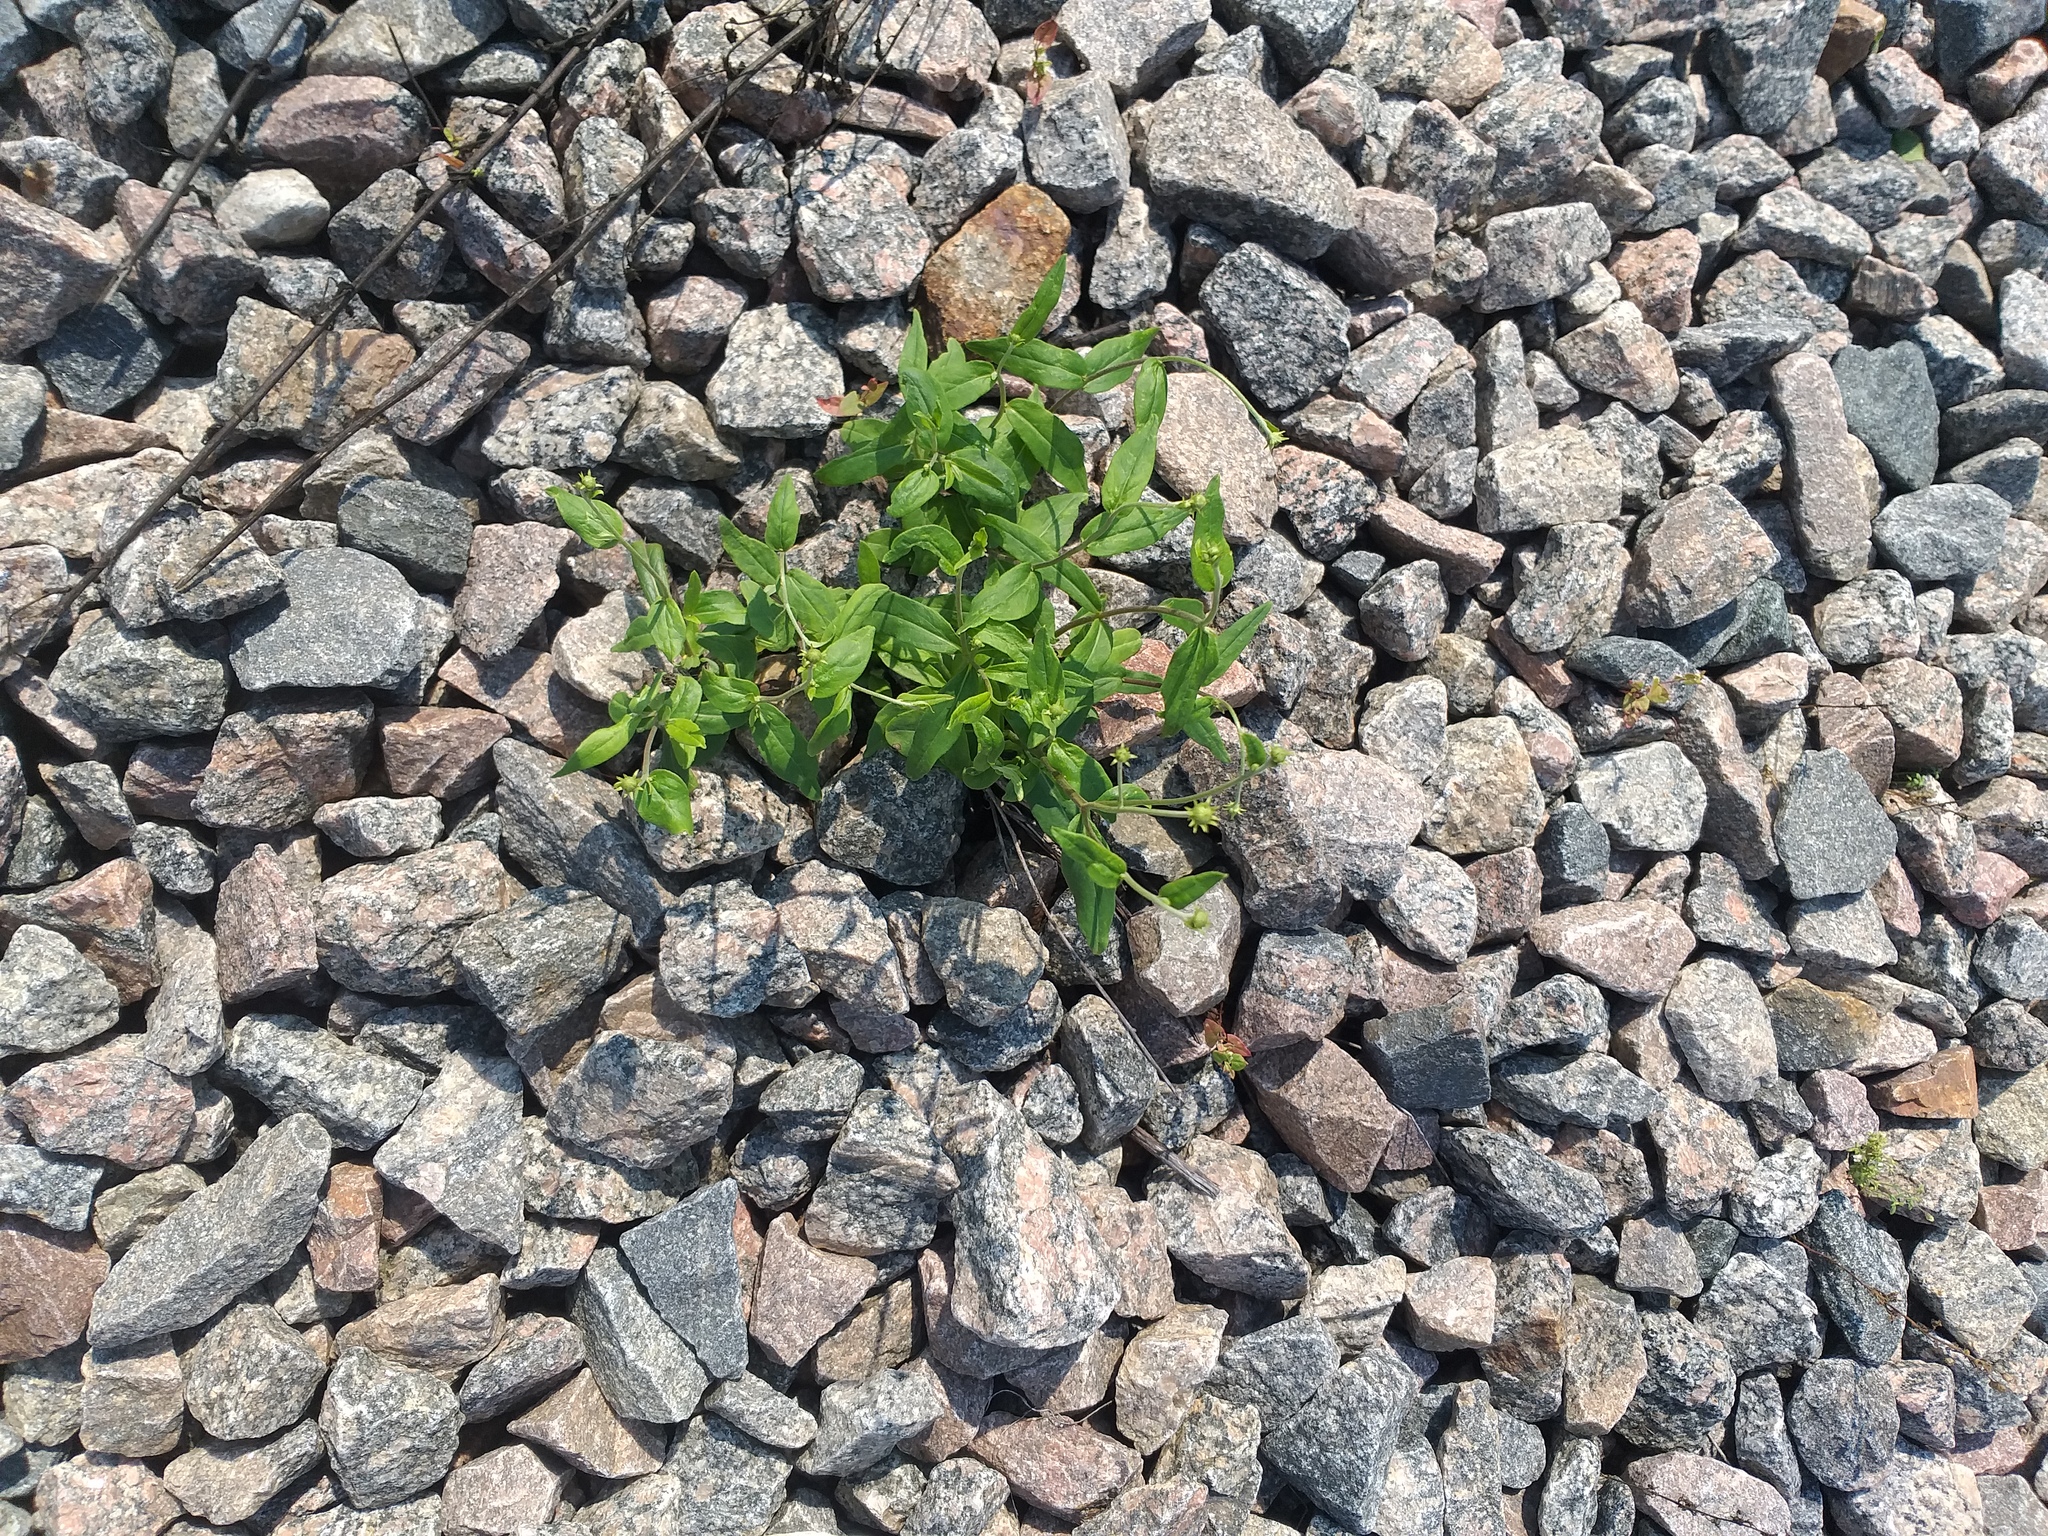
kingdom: Plantae
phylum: Tracheophyta
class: Magnoliopsida
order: Asterales
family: Asteraceae
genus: Hieracium
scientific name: Hieracium umbellatum
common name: Northern hawkweed
